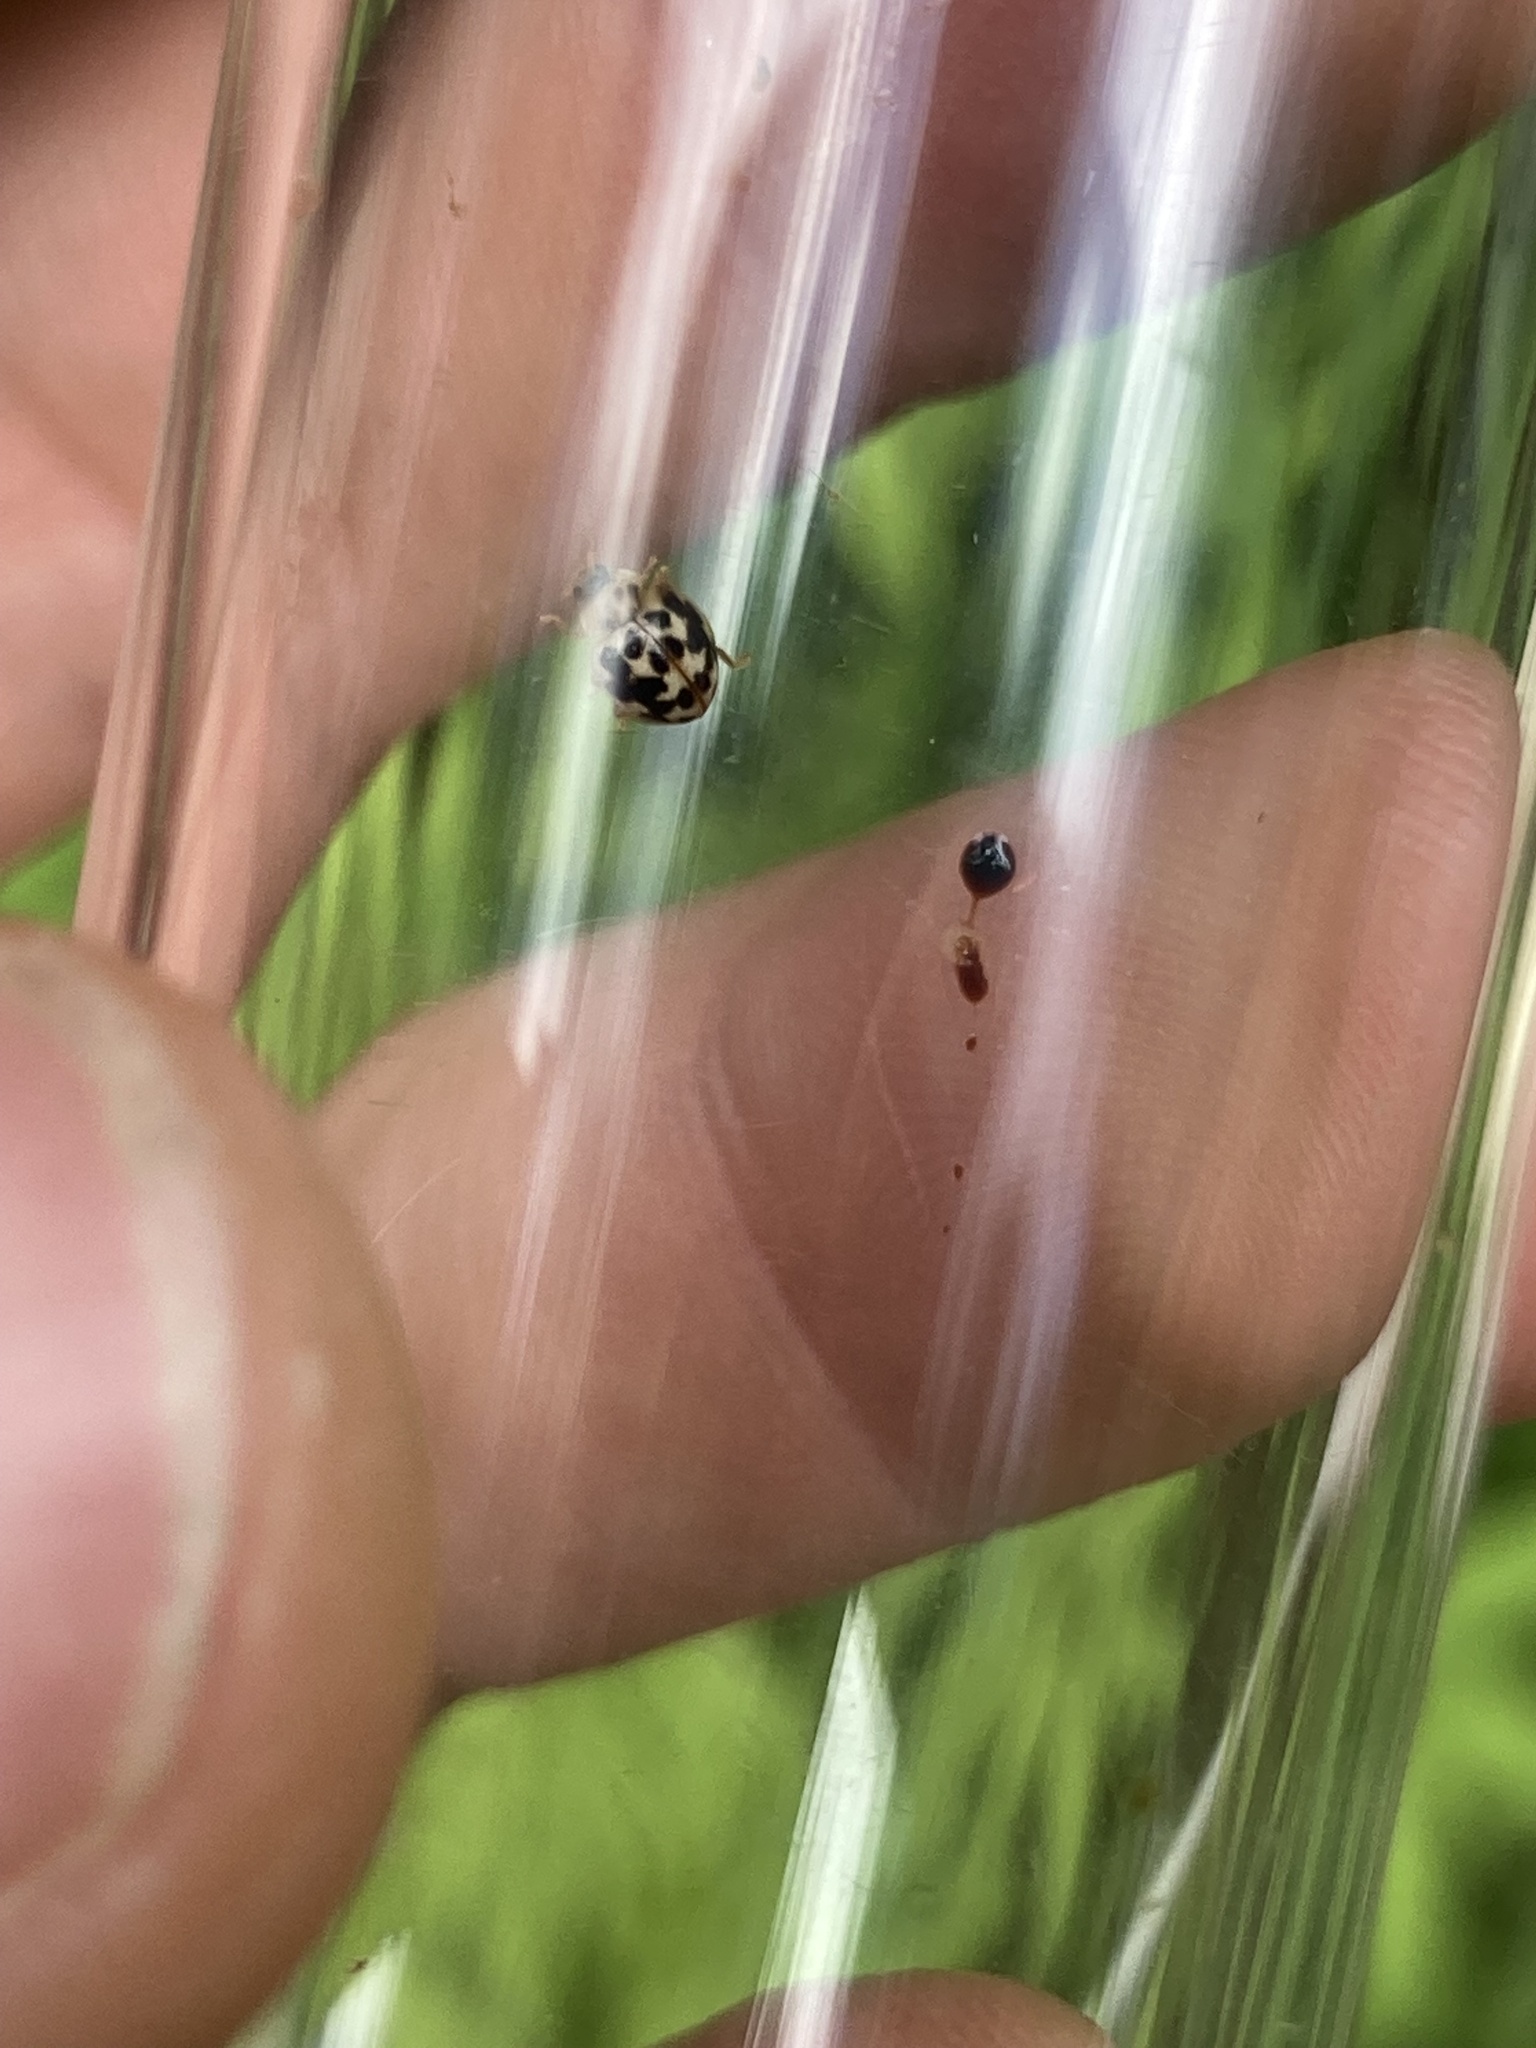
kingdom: Animalia
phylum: Arthropoda
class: Insecta
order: Coleoptera
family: Coccinellidae
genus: Psyllobora
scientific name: Psyllobora vigintimaculata
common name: Ladybird beetle
